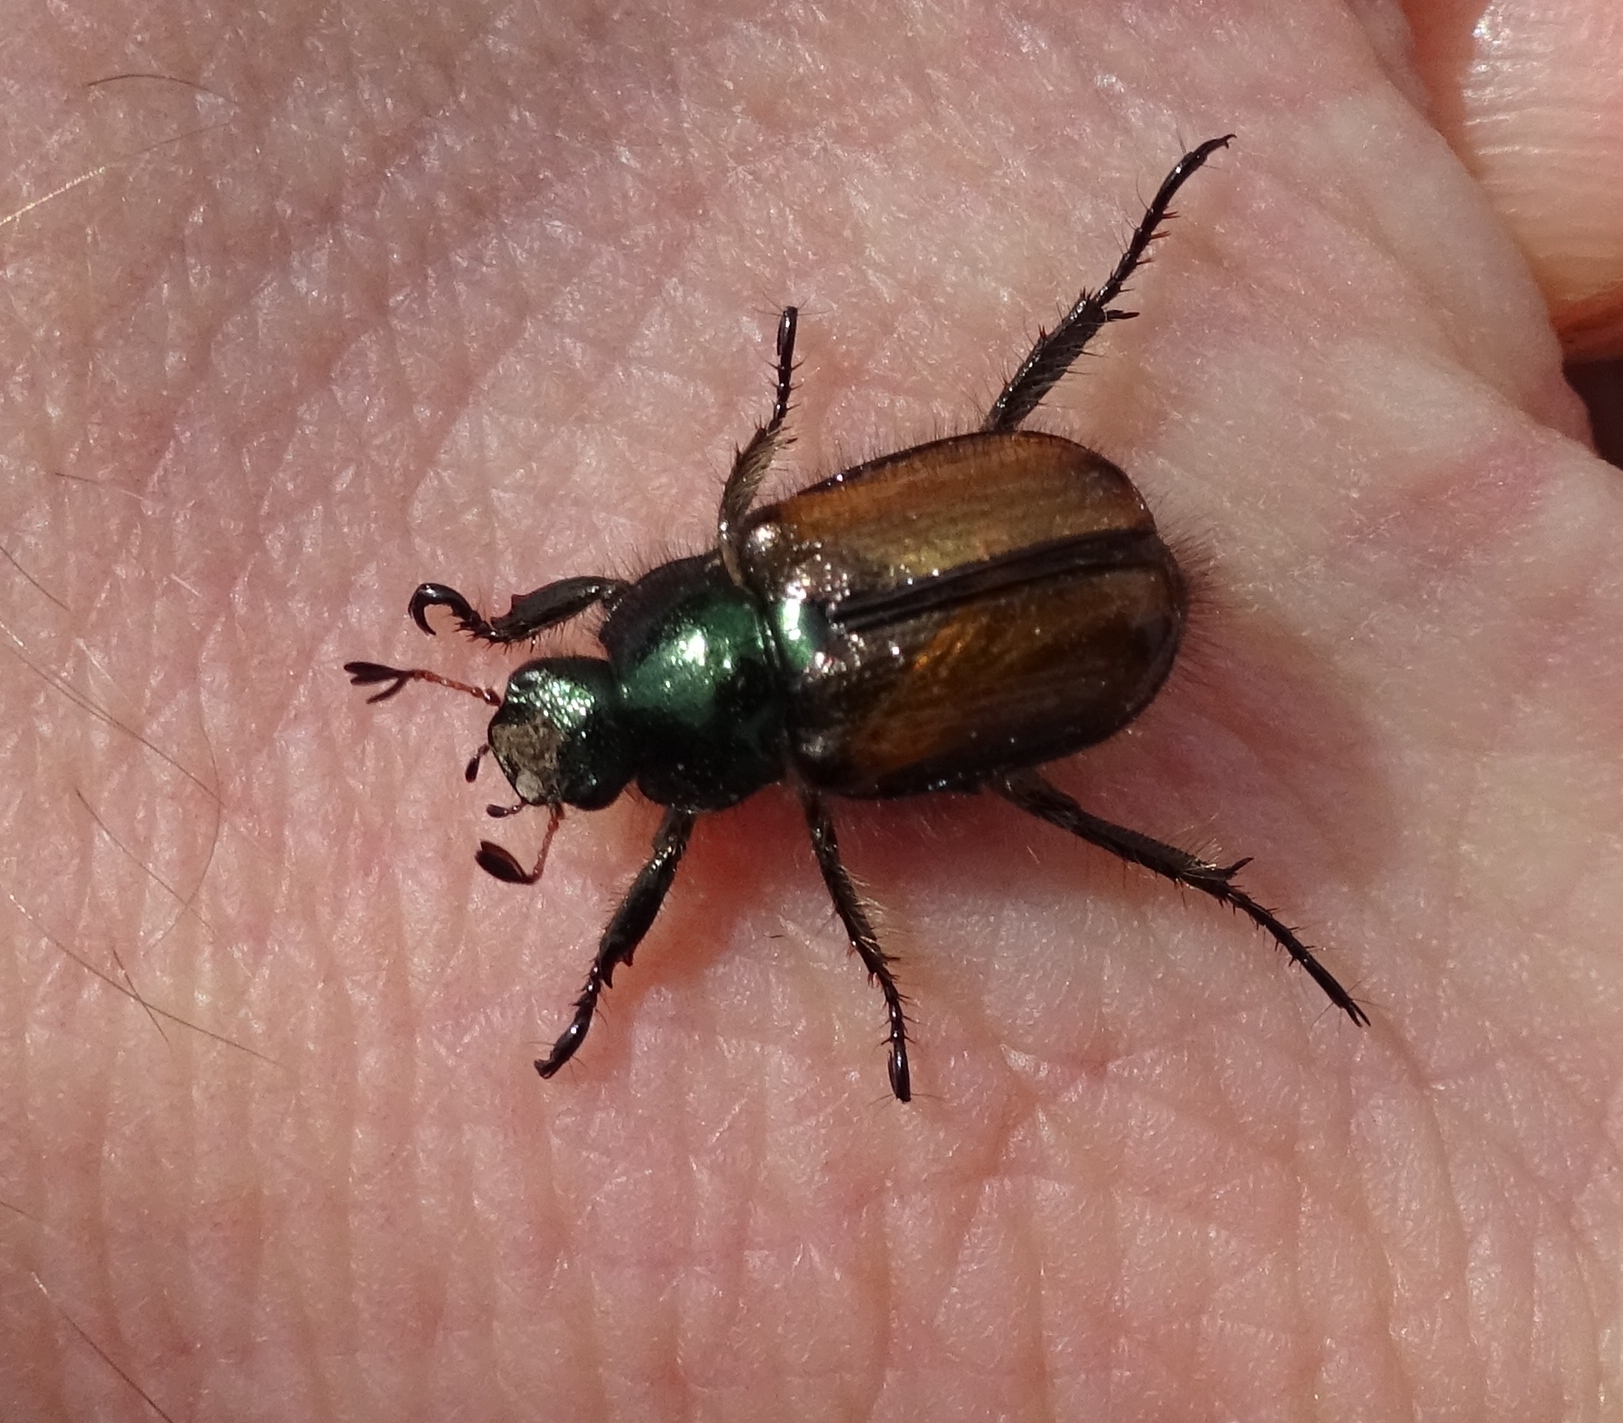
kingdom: Animalia
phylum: Arthropoda
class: Insecta
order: Coleoptera
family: Scarabaeidae
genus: Phyllopertha
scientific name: Phyllopertha horticola
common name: Garden chafer
